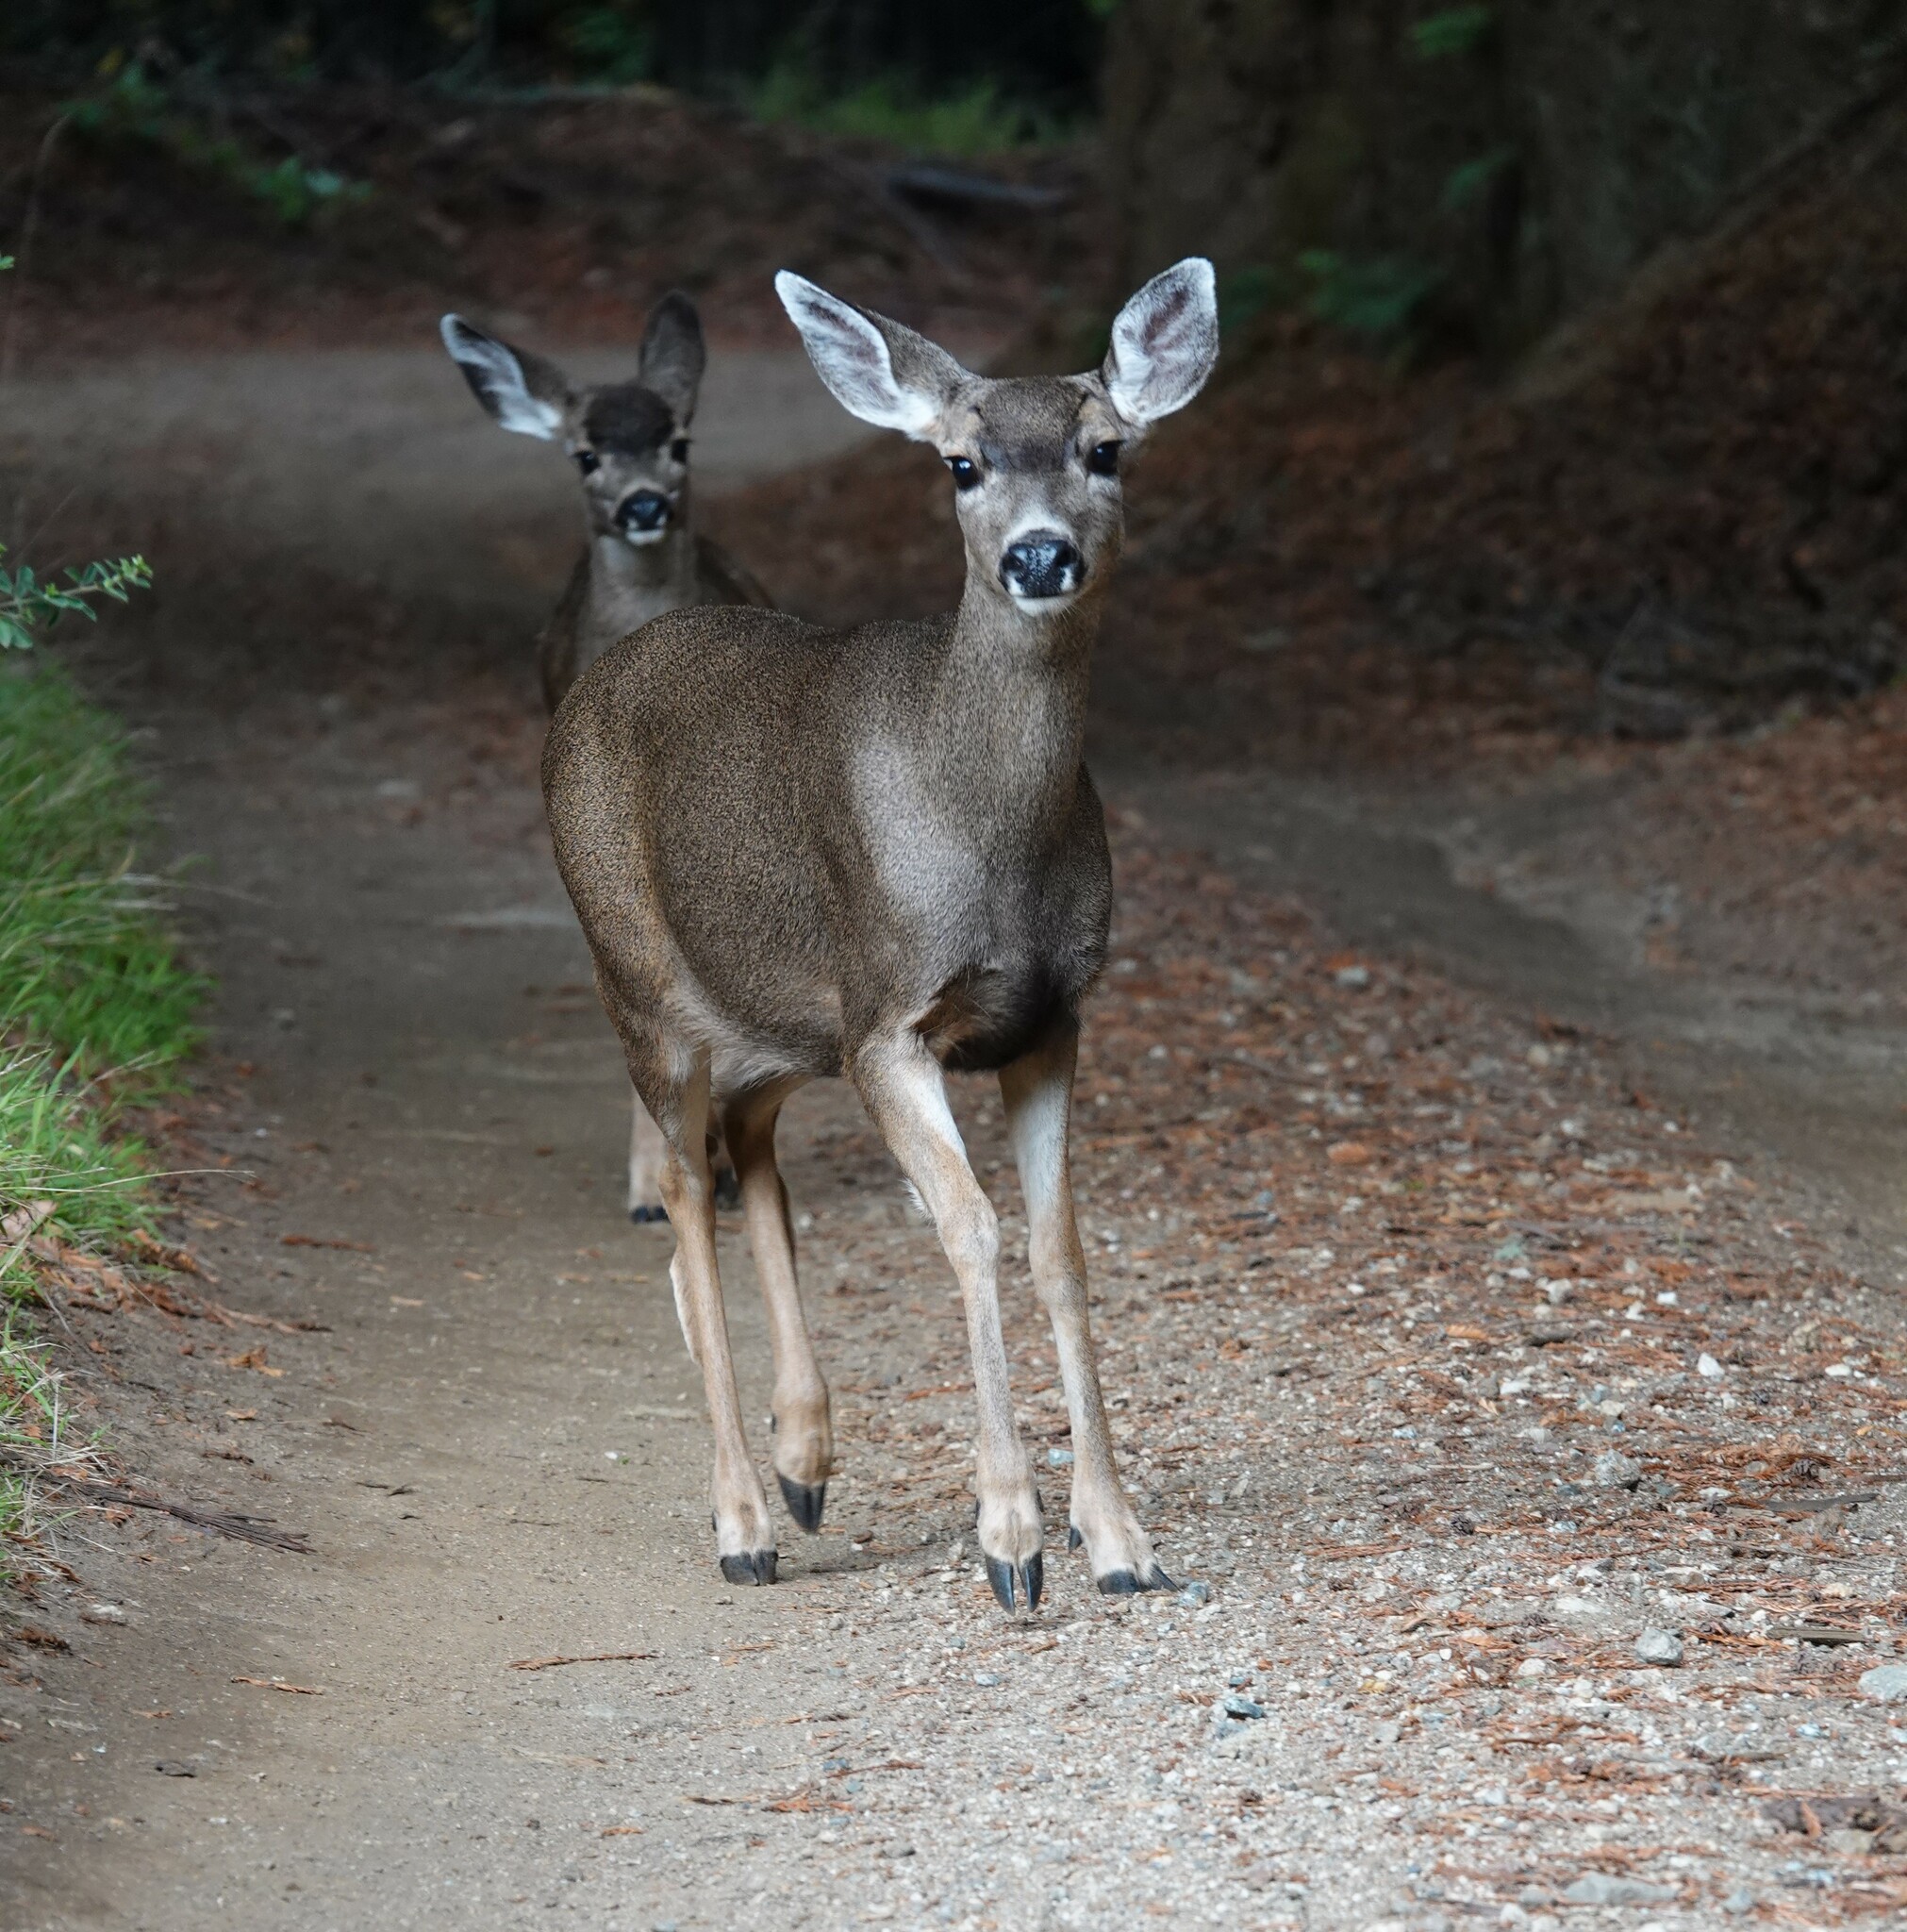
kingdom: Animalia
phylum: Chordata
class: Mammalia
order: Artiodactyla
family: Cervidae
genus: Odocoileus
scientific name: Odocoileus hemionus
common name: Mule deer
